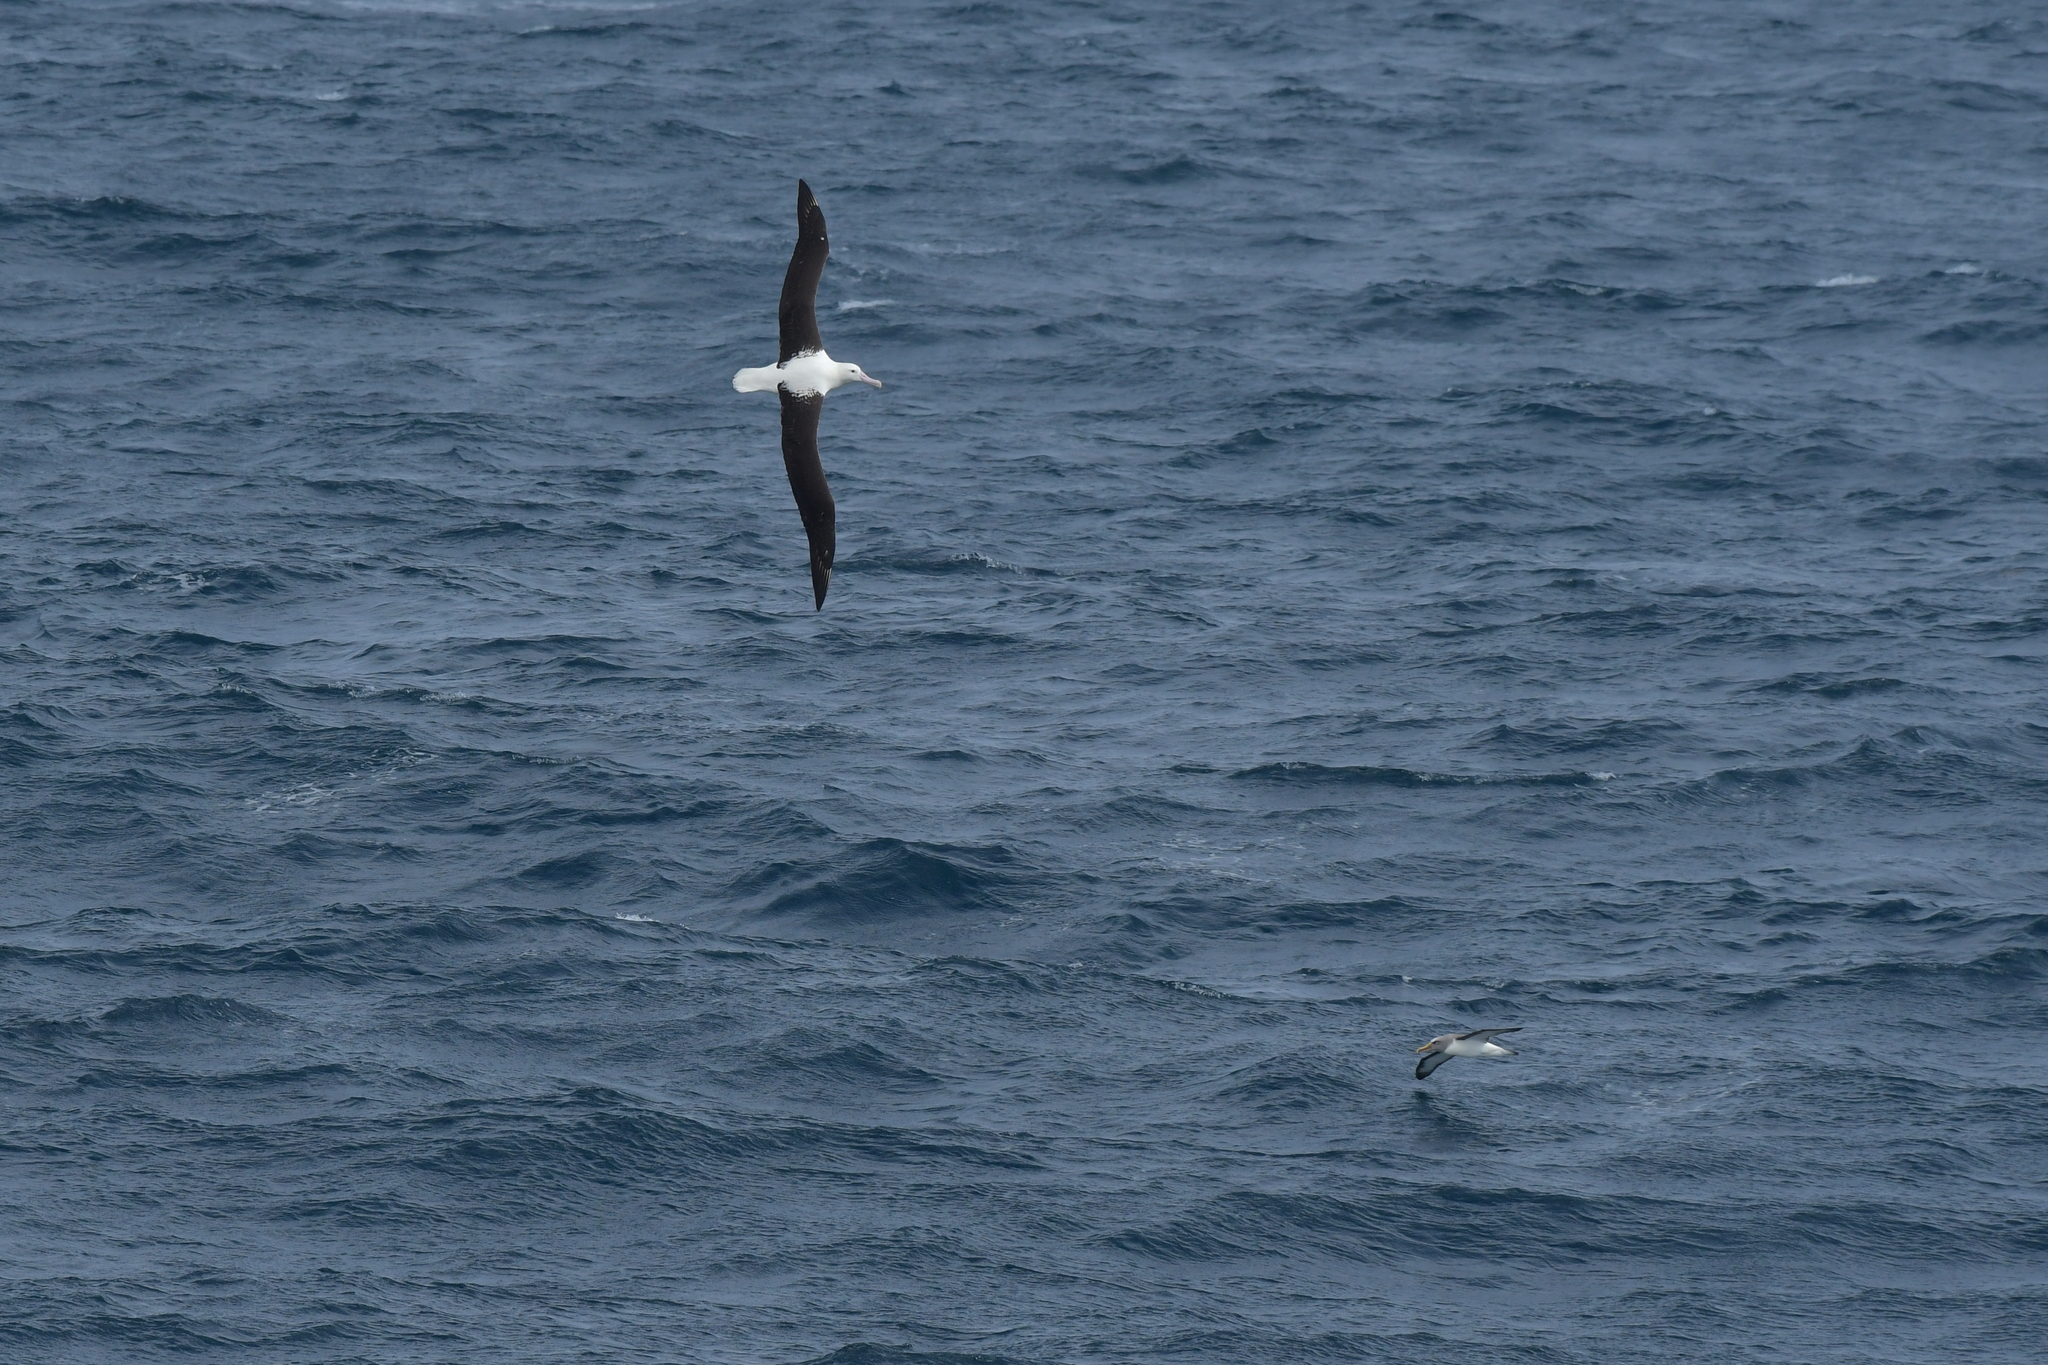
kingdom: Animalia
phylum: Chordata
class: Aves
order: Procellariiformes
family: Diomedeidae
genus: Diomedea
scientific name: Diomedea sanfordi
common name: Northern royal albatross
